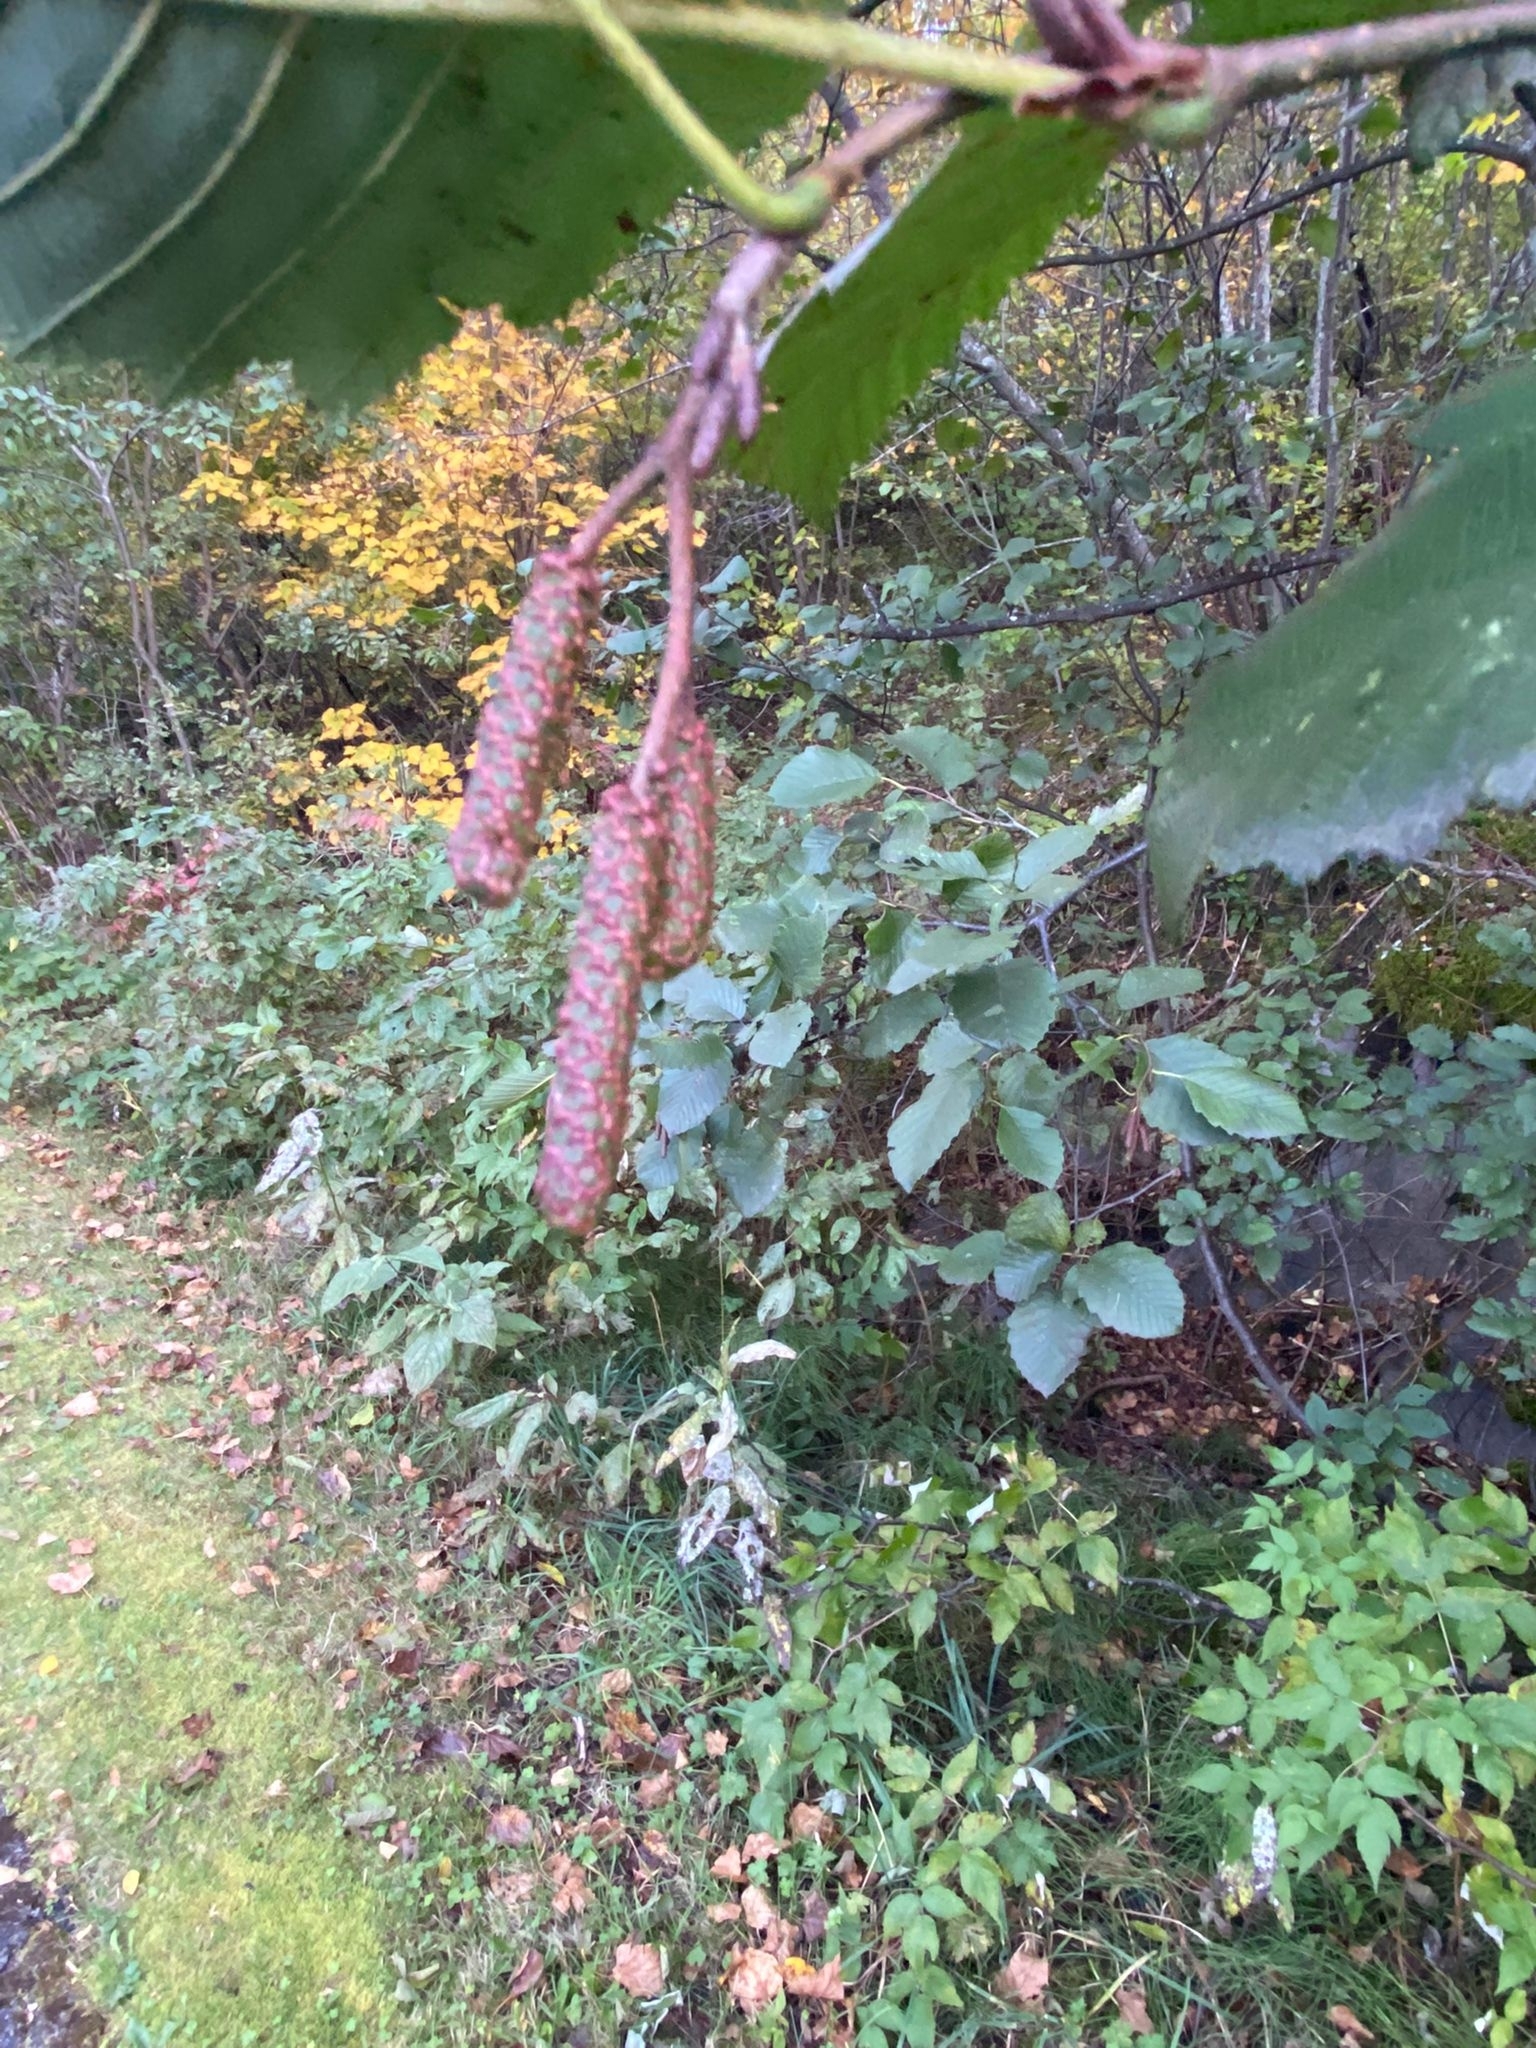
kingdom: Plantae
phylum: Tracheophyta
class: Magnoliopsida
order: Fagales
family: Betulaceae
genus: Alnus
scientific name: Alnus incana
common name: Grey alder
